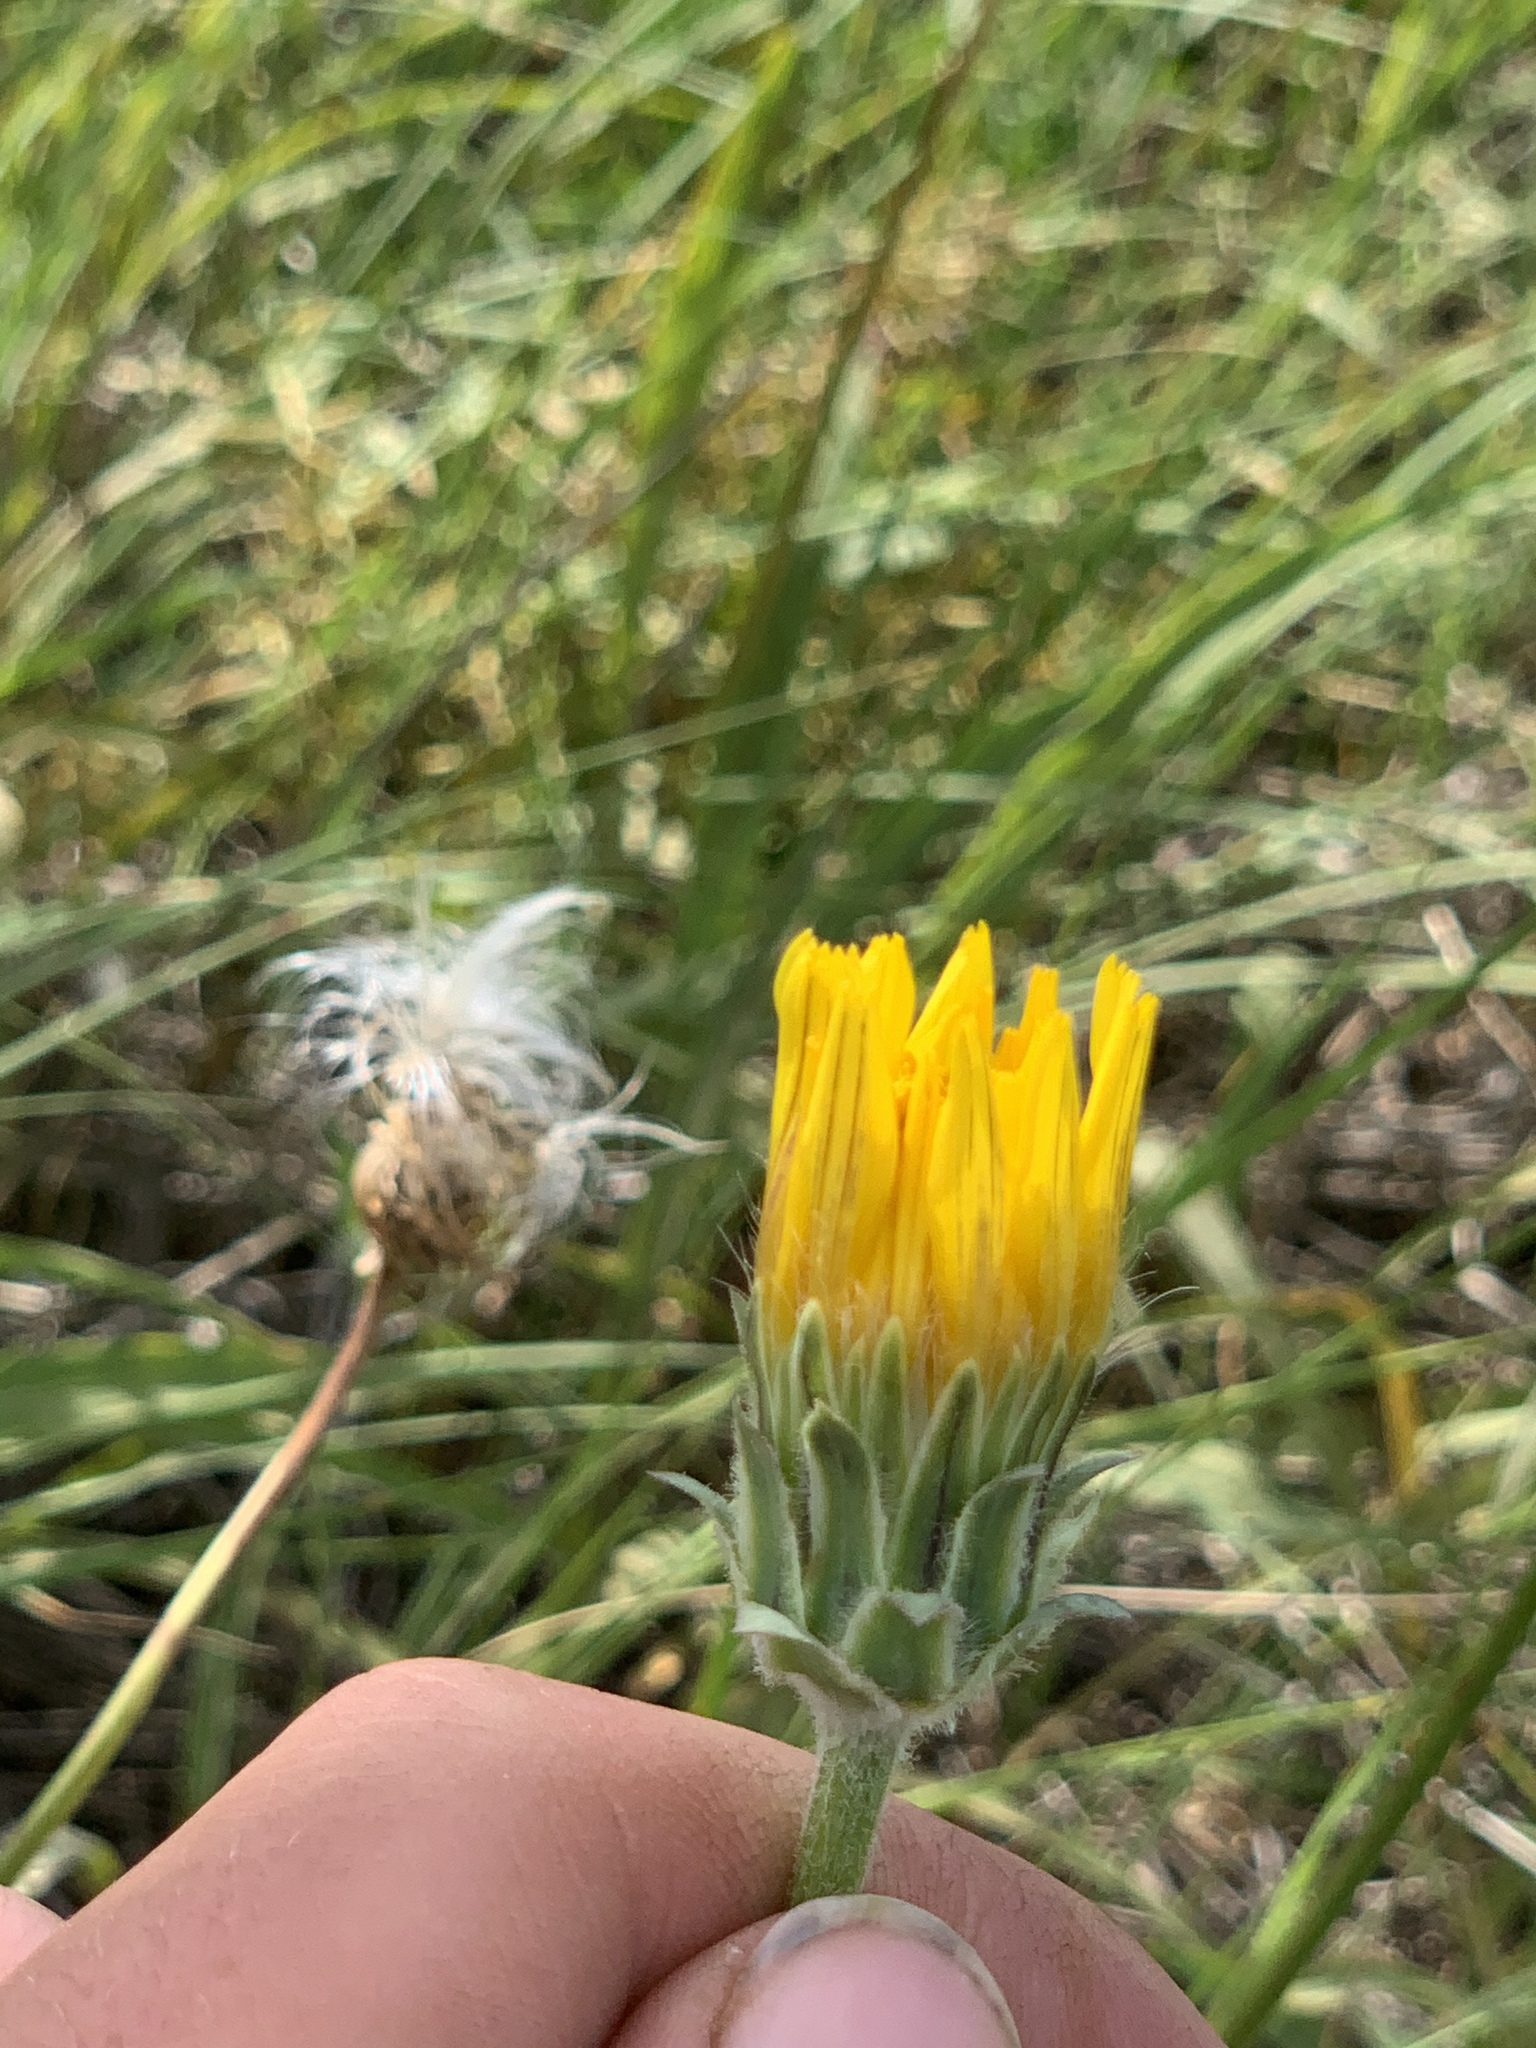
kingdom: Plantae
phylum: Tracheophyta
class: Magnoliopsida
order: Asterales
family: Asteraceae
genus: Agoseris
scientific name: Agoseris glauca
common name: Prairie agoseris
